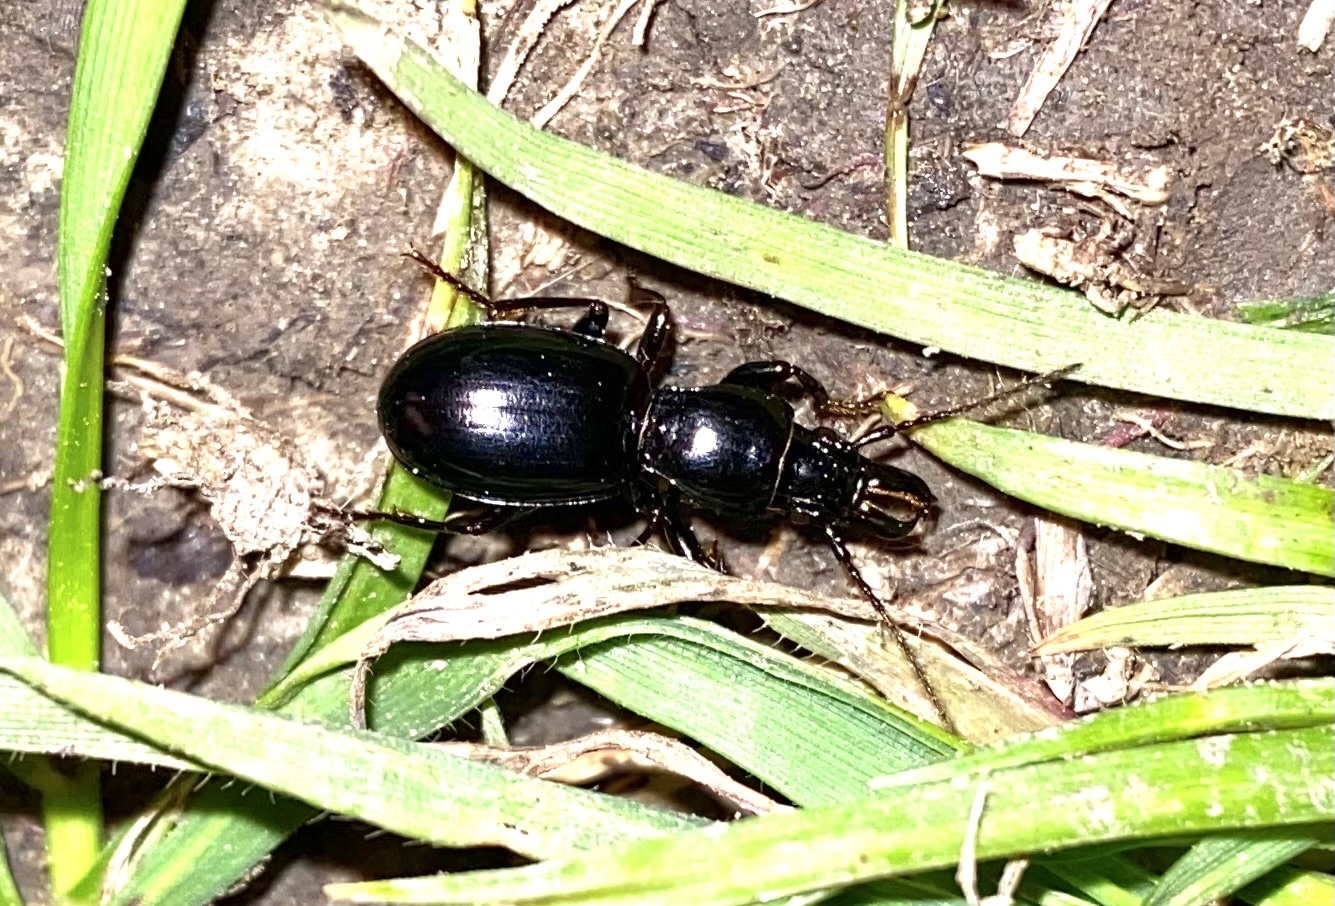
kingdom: Animalia
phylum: Arthropoda
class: Insecta
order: Coleoptera
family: Carabidae
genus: Promecognathus
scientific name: Promecognathus laevissimus
